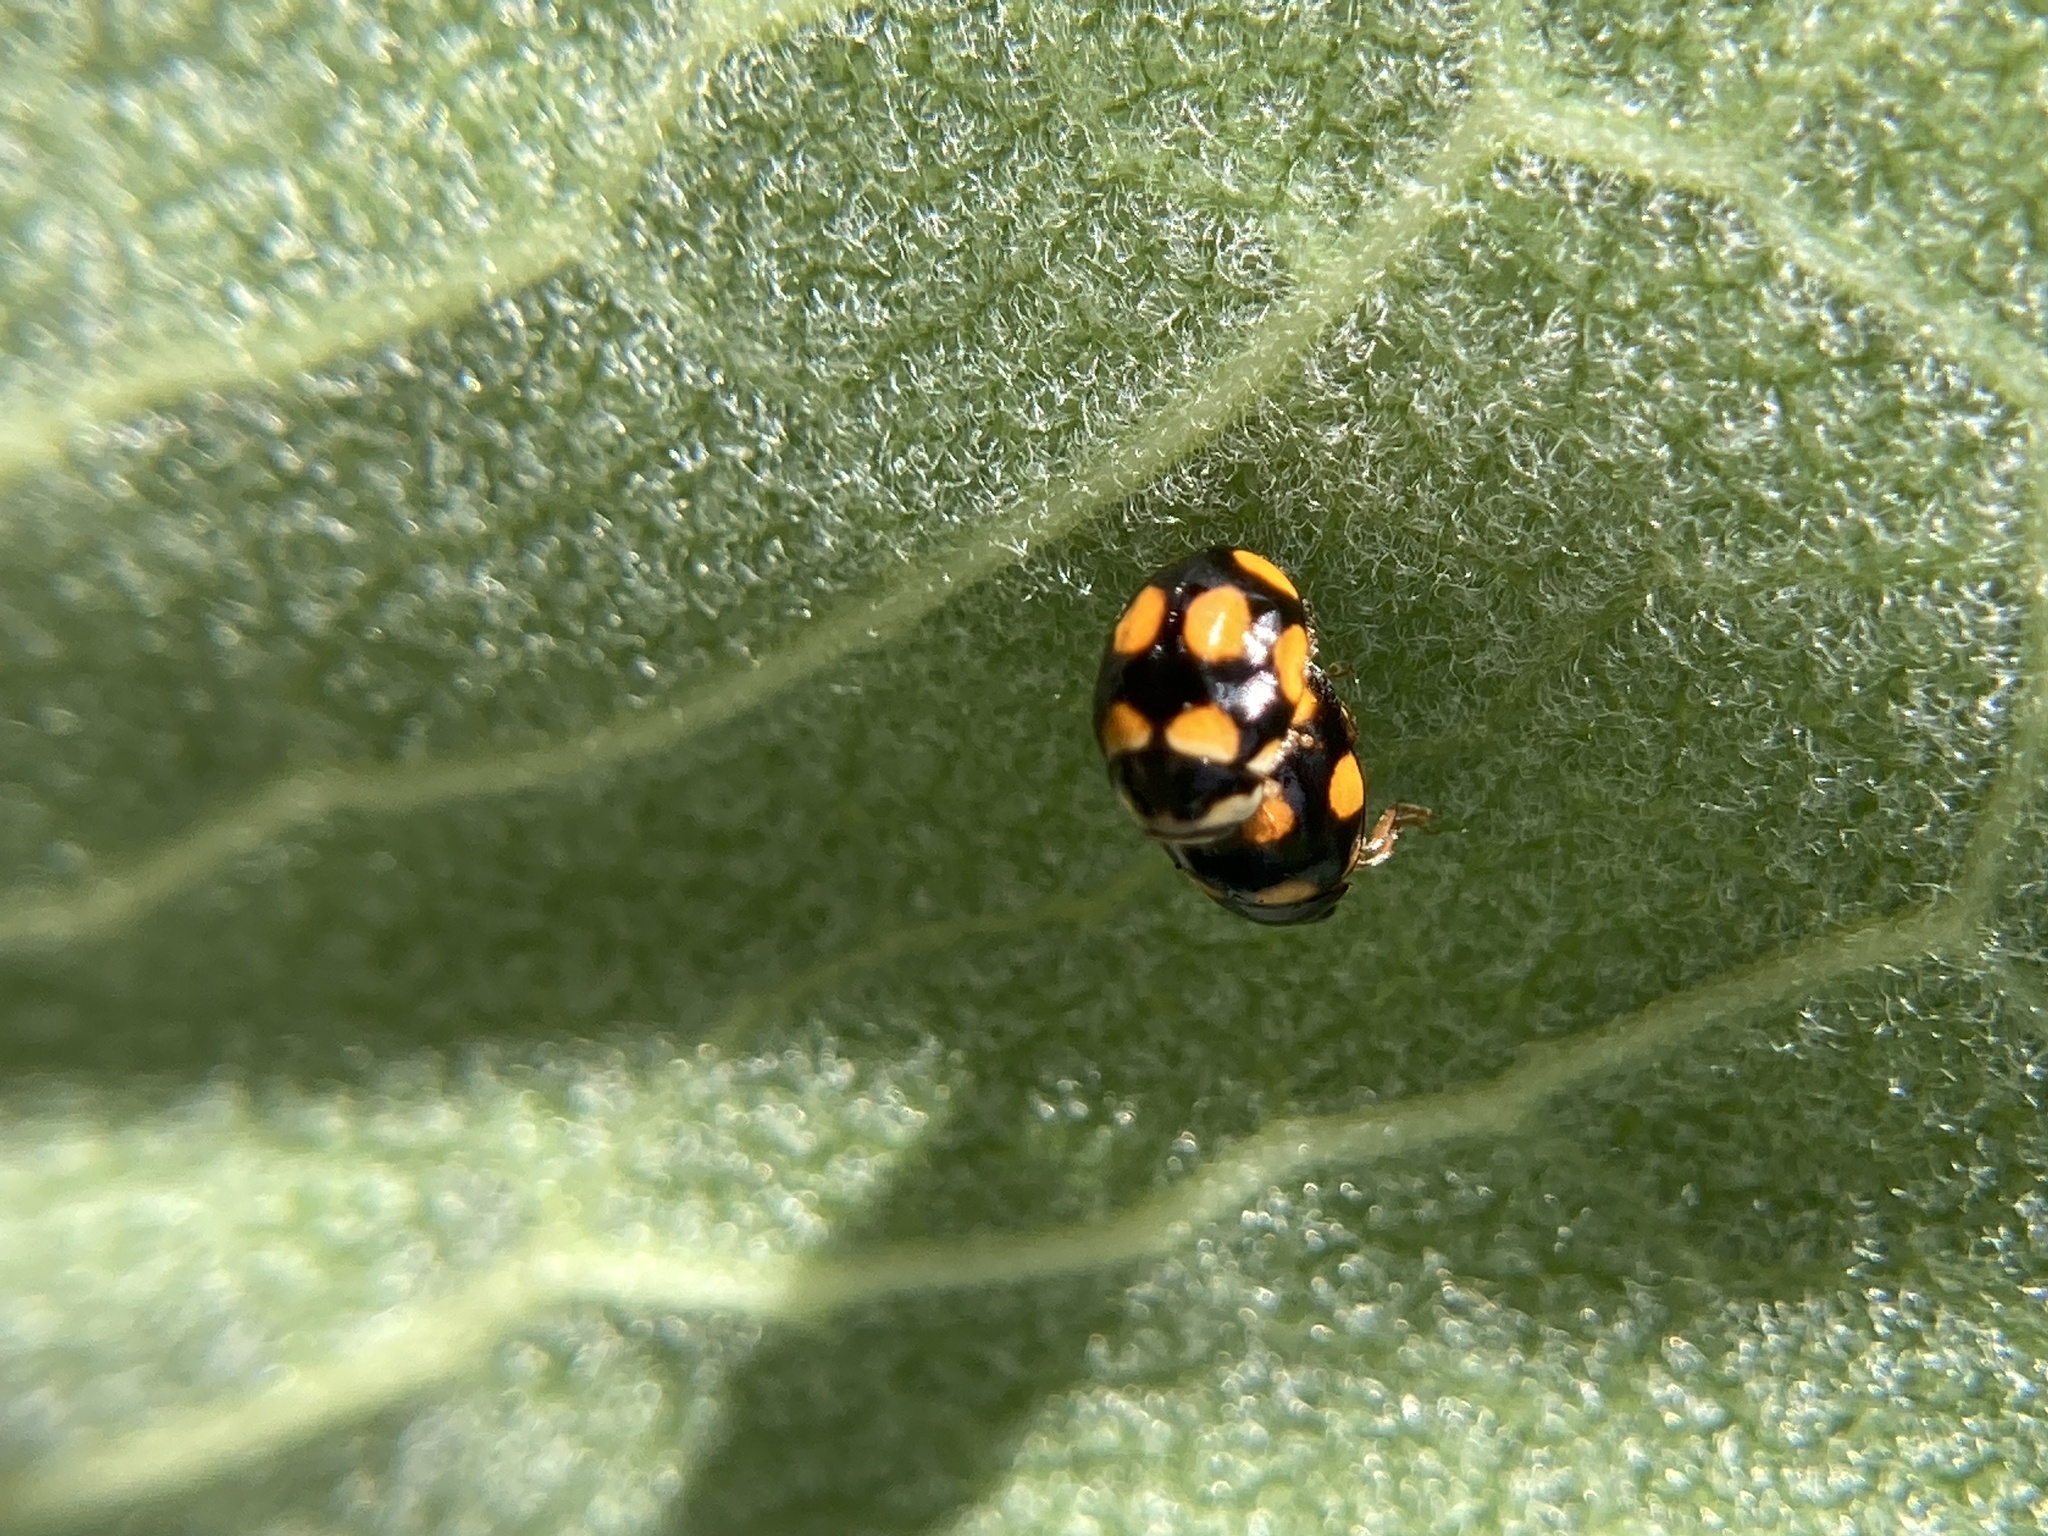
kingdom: Animalia
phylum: Arthropoda
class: Insecta
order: Coleoptera
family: Coccinellidae
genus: Brachiacantha
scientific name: Brachiacantha ursina
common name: Ursine spurleg lady beetle
